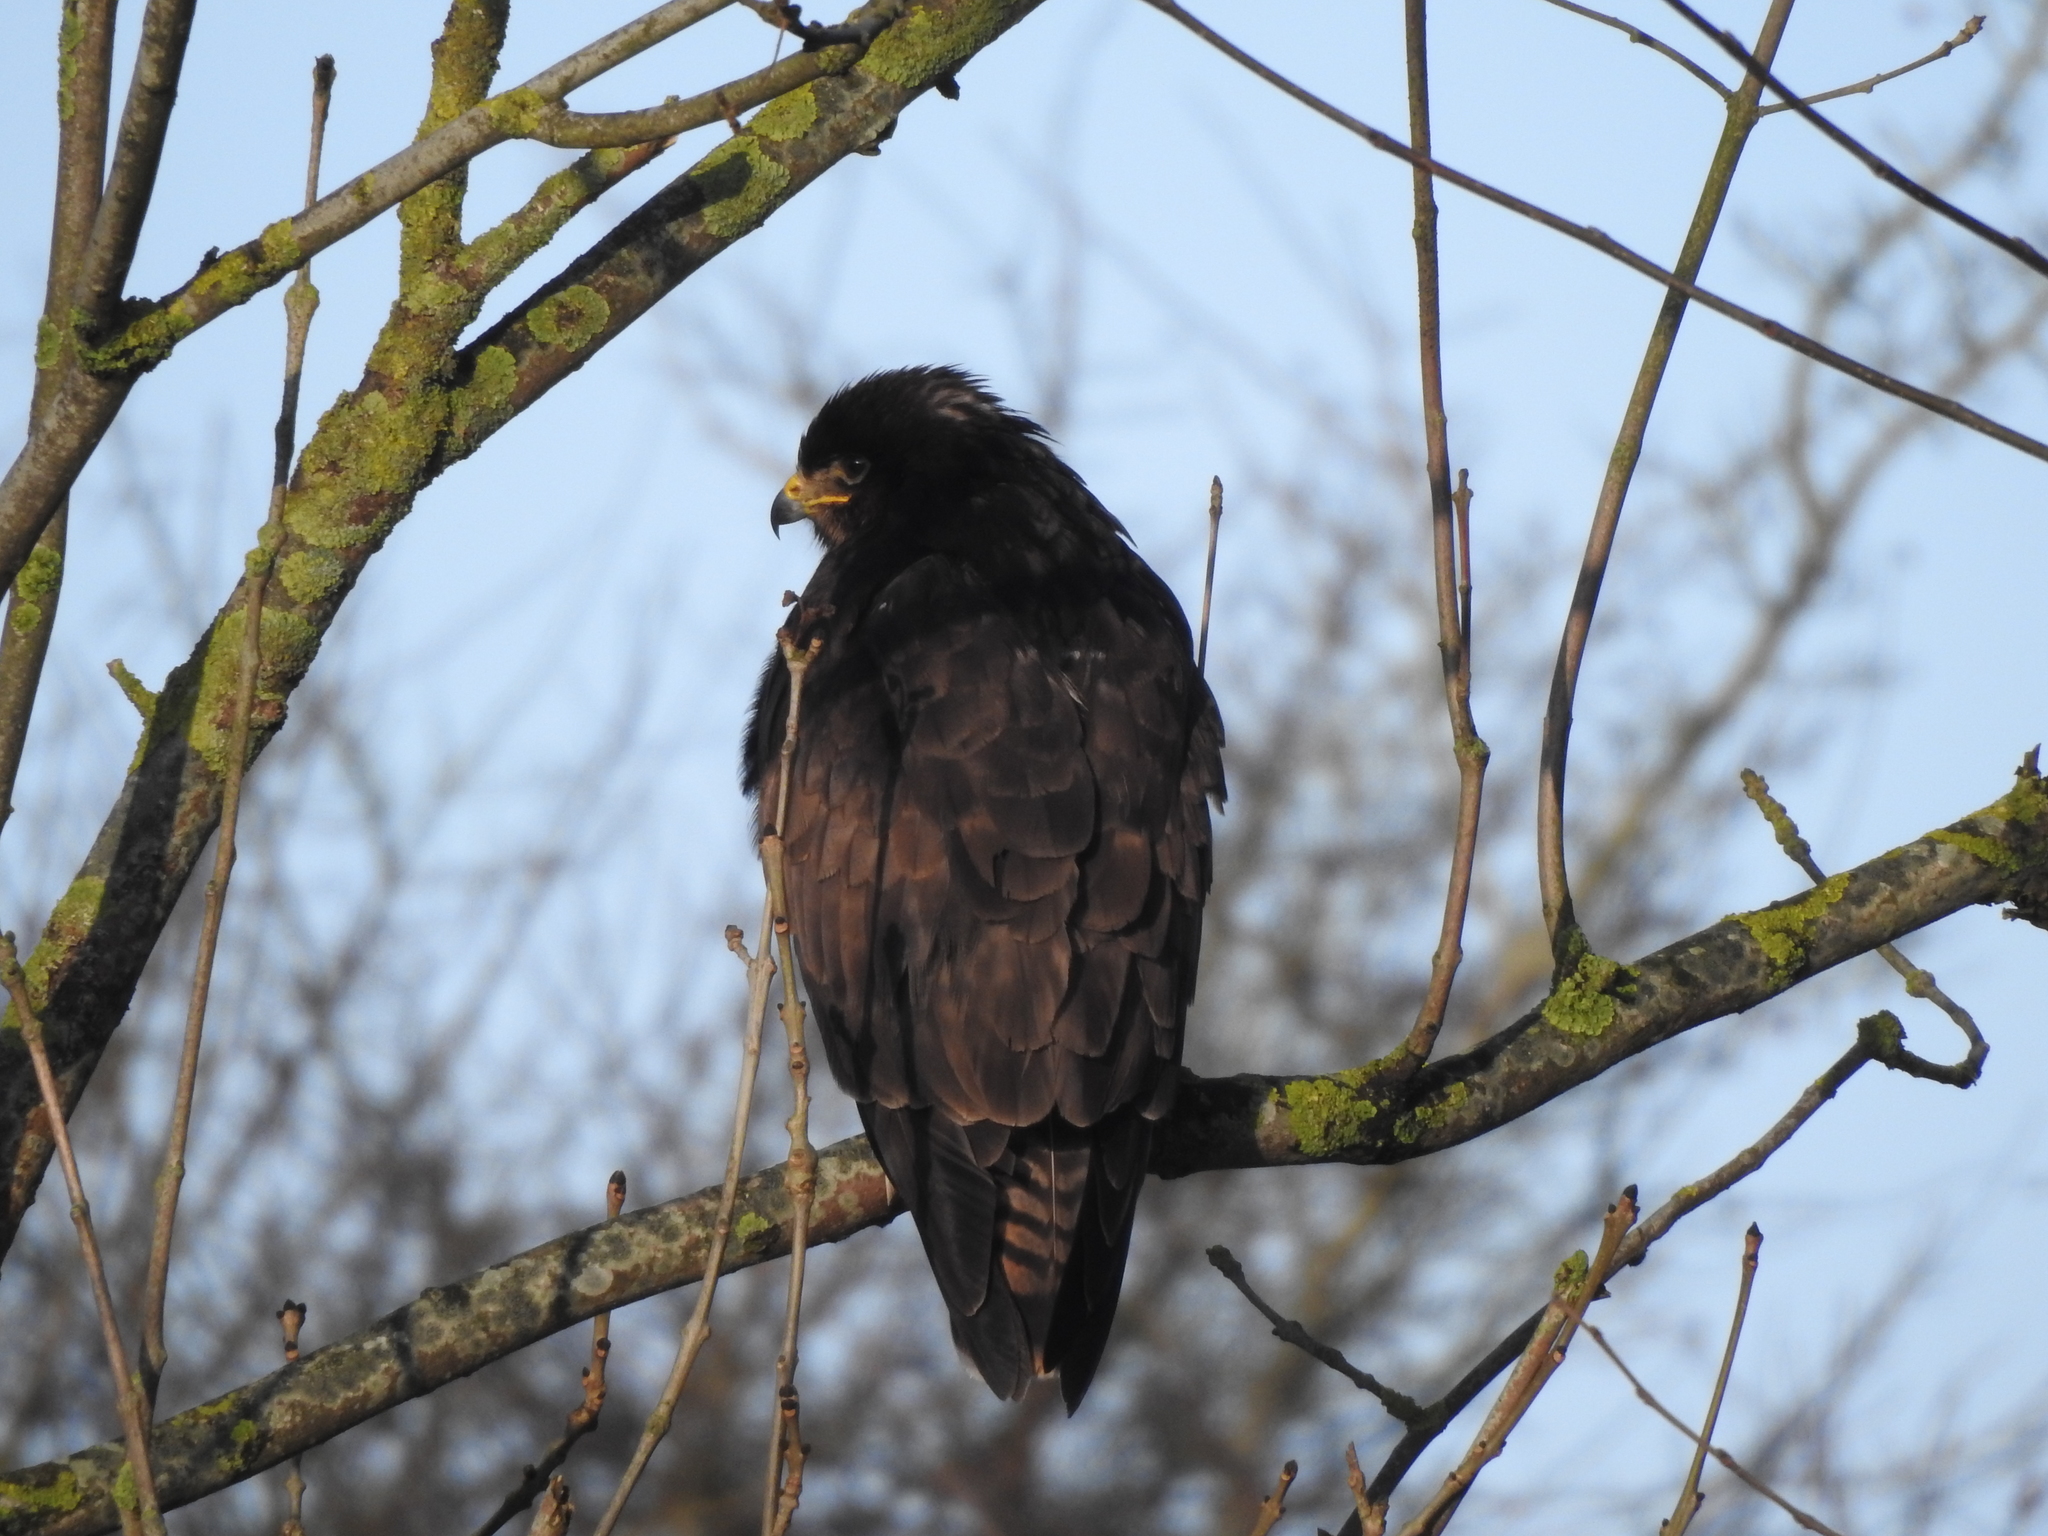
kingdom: Animalia
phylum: Chordata
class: Aves
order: Accipitriformes
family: Accipitridae
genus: Buteo
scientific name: Buteo buteo
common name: Common buzzard
